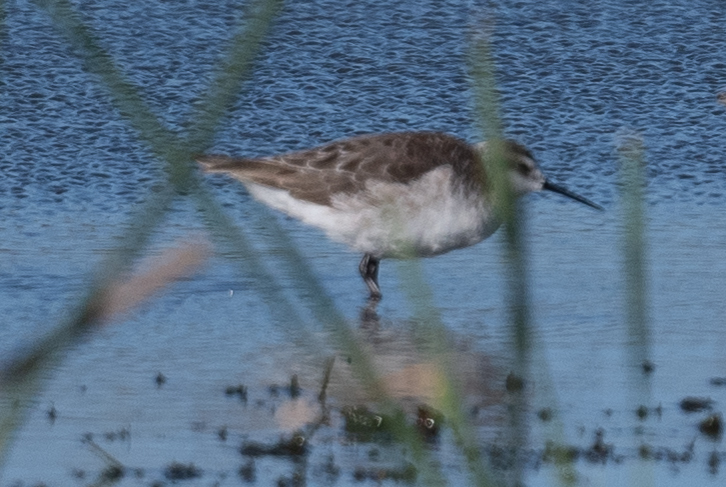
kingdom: Animalia
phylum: Chordata
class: Aves
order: Charadriiformes
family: Scolopacidae
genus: Phalaropus
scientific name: Phalaropus tricolor
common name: Wilson's phalarope
